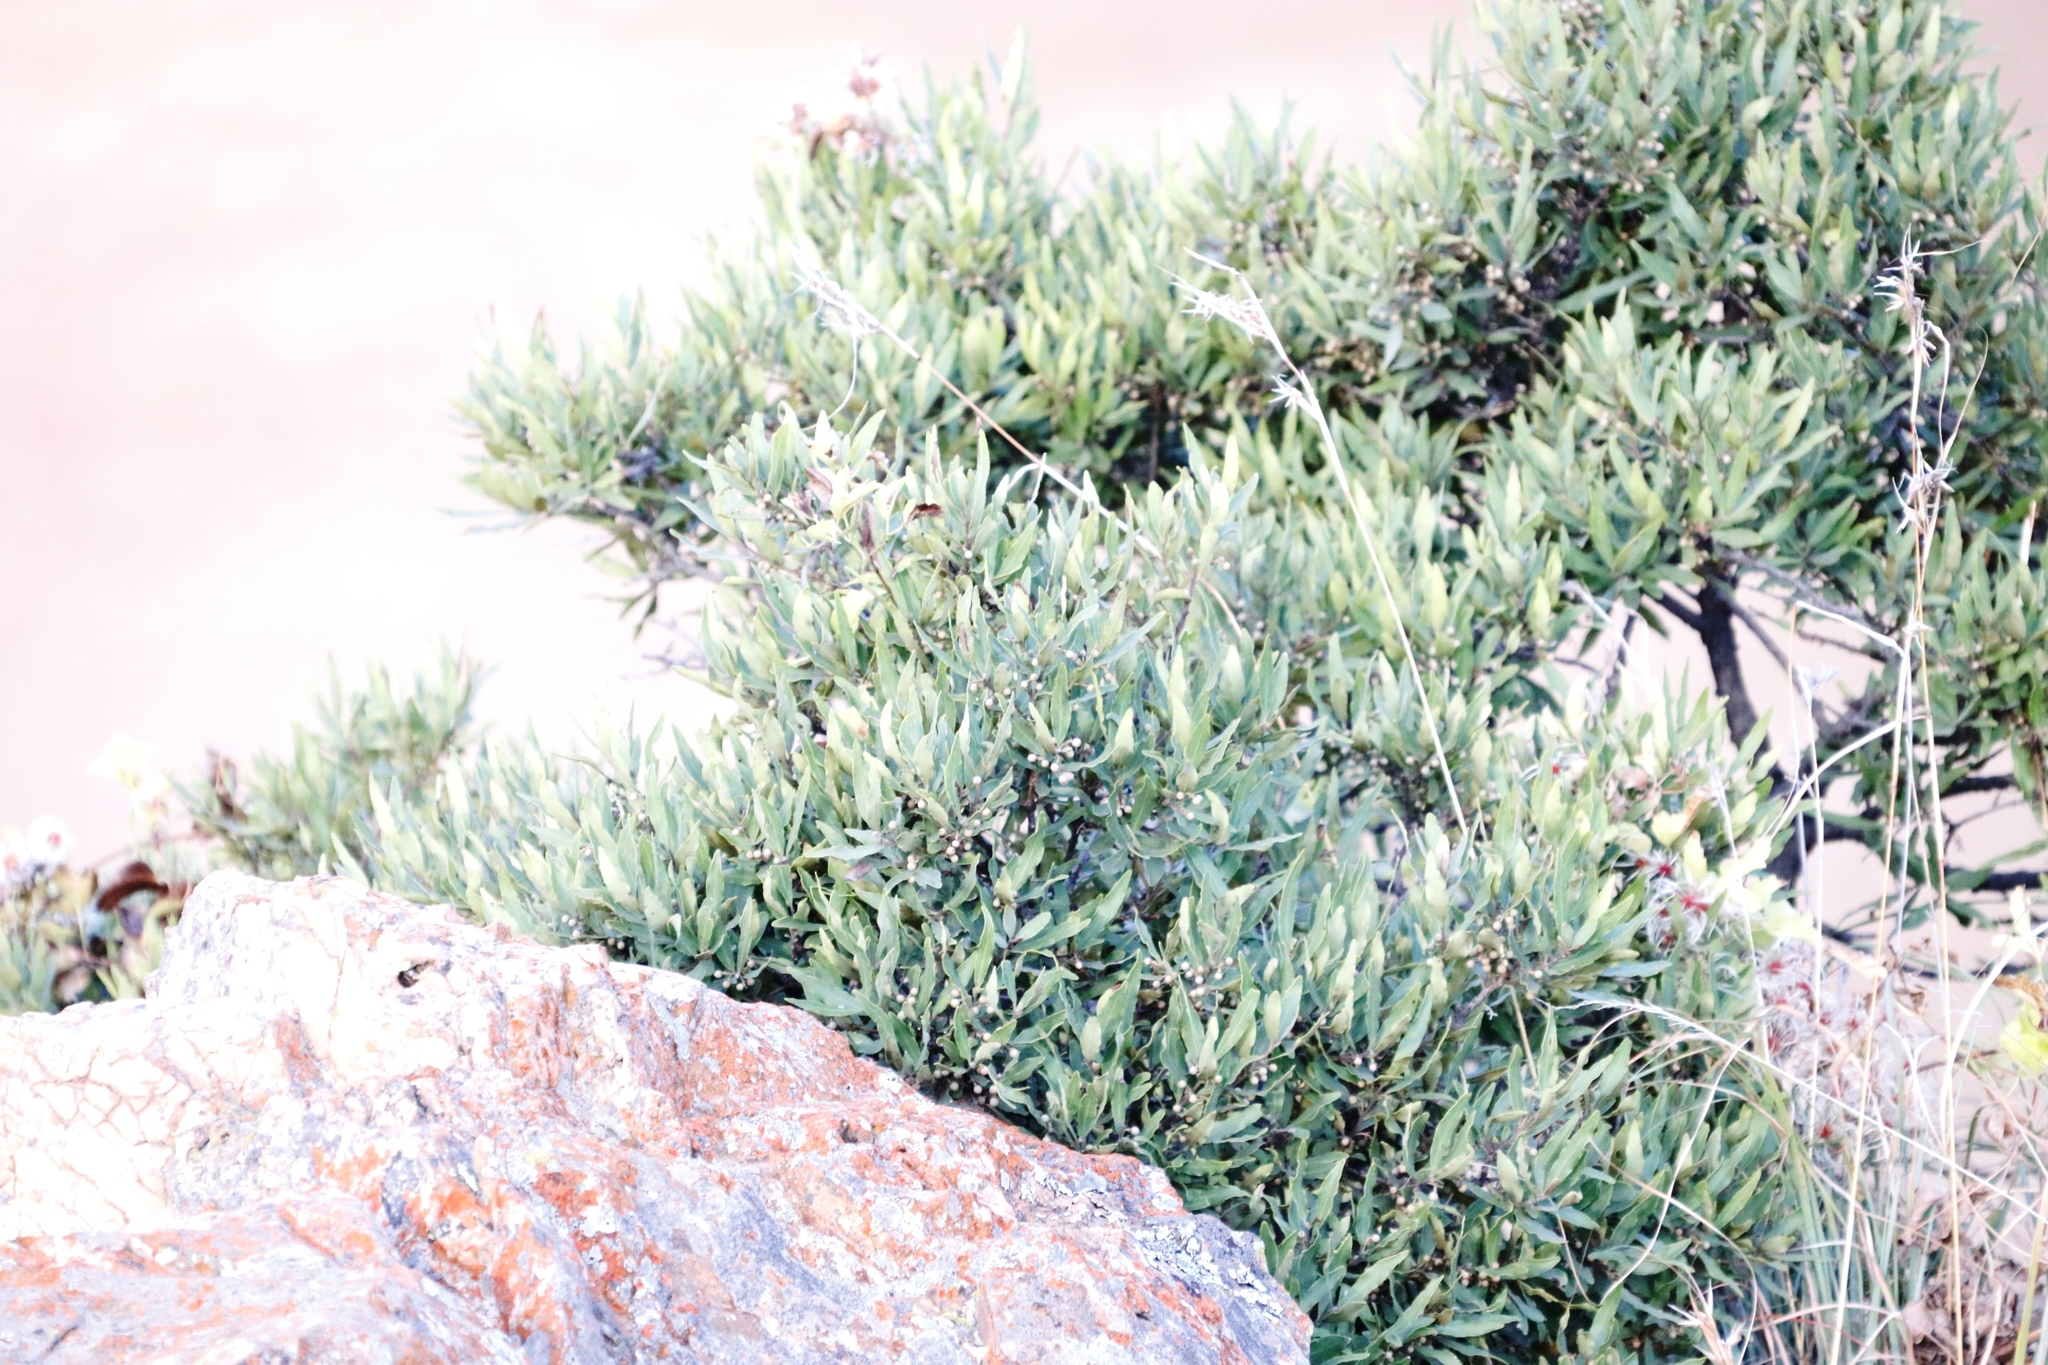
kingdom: Plantae
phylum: Tracheophyta
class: Magnoliopsida
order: Ericales
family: Ebenaceae
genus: Euclea
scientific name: Euclea undulata
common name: Small-leaved guarri
